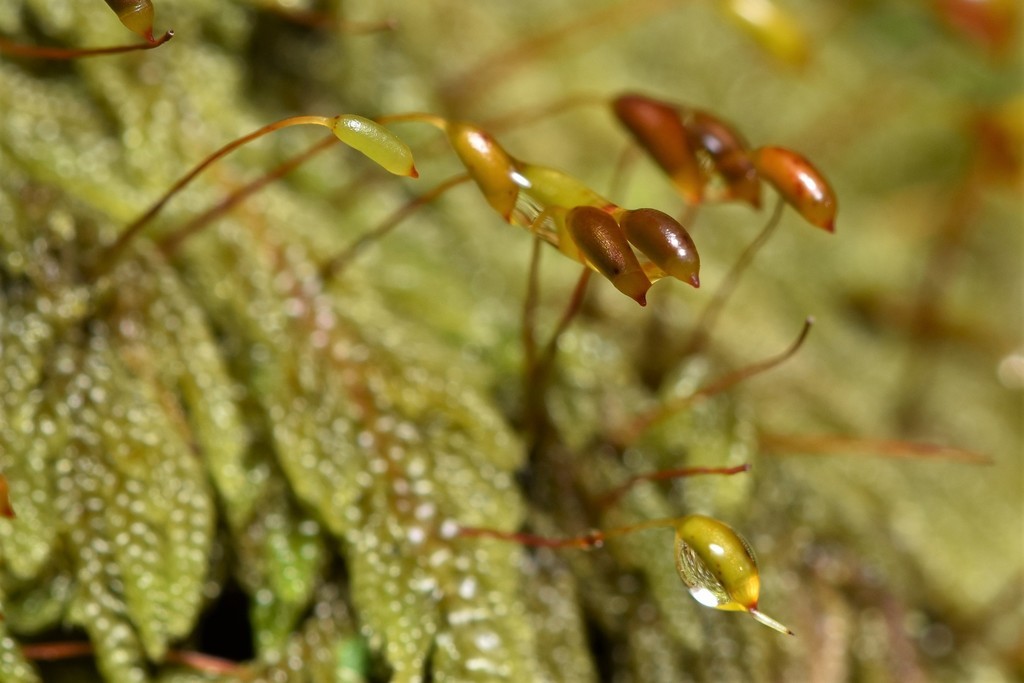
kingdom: Plantae
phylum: Bryophyta
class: Bryopsida
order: Hypnales
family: Pylaisiadelphaceae
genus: Trochophyllohypnum
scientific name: Trochophyllohypnum circinale
